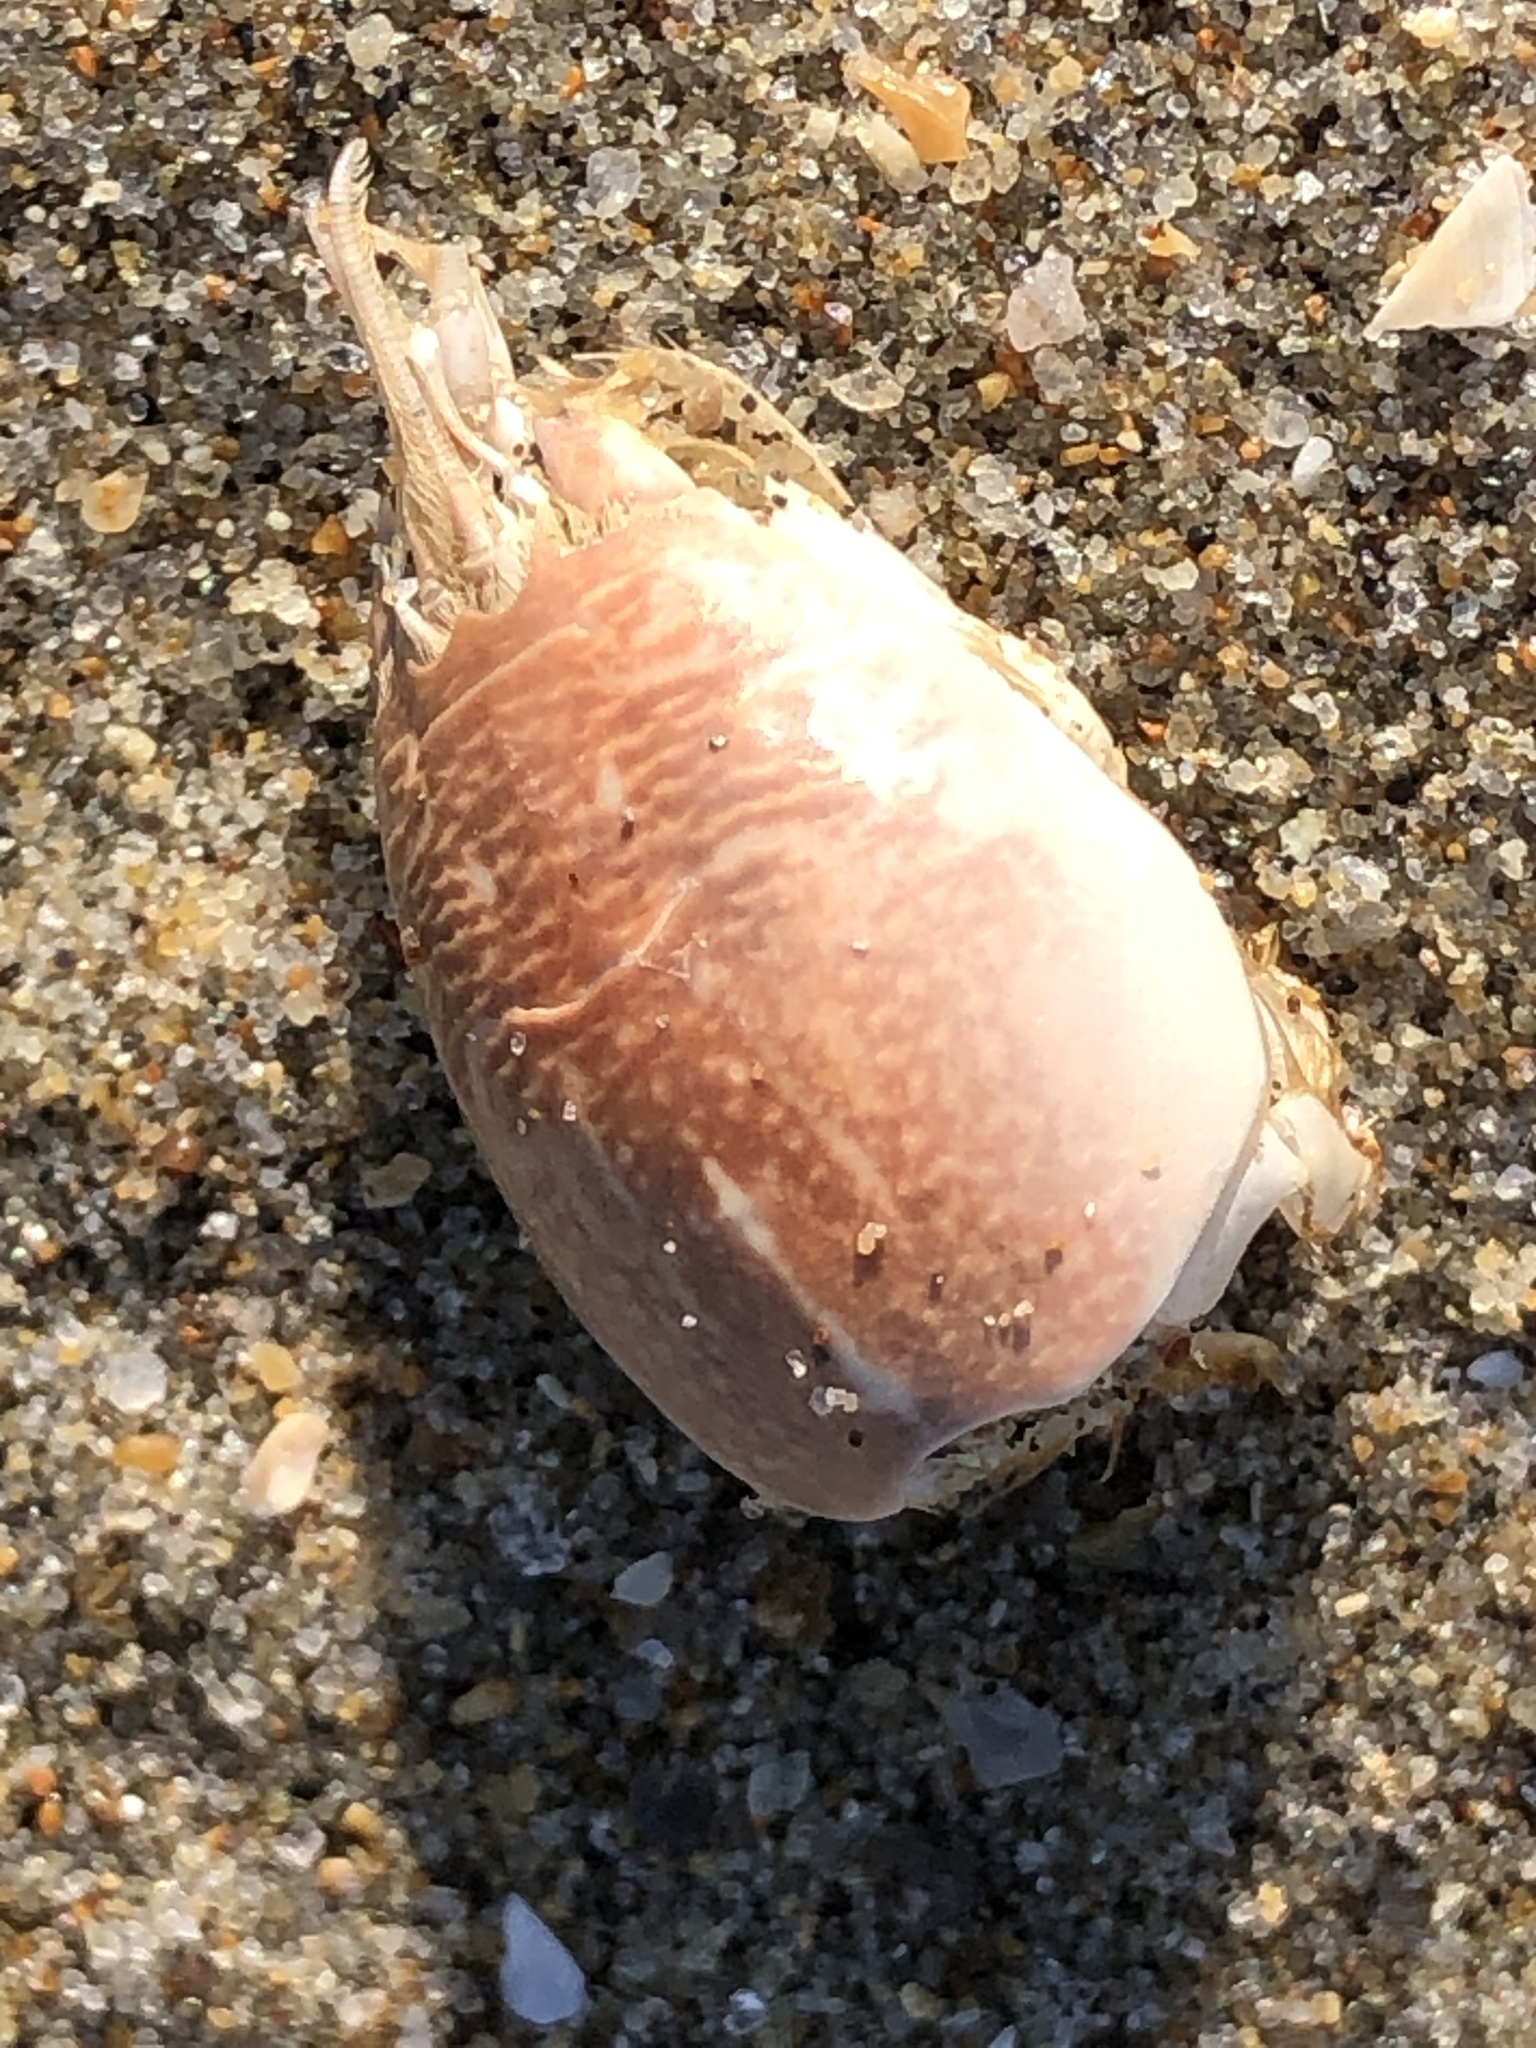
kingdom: Animalia
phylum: Arthropoda
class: Malacostraca
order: Decapoda
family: Hippidae
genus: Emerita
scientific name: Emerita analoga
